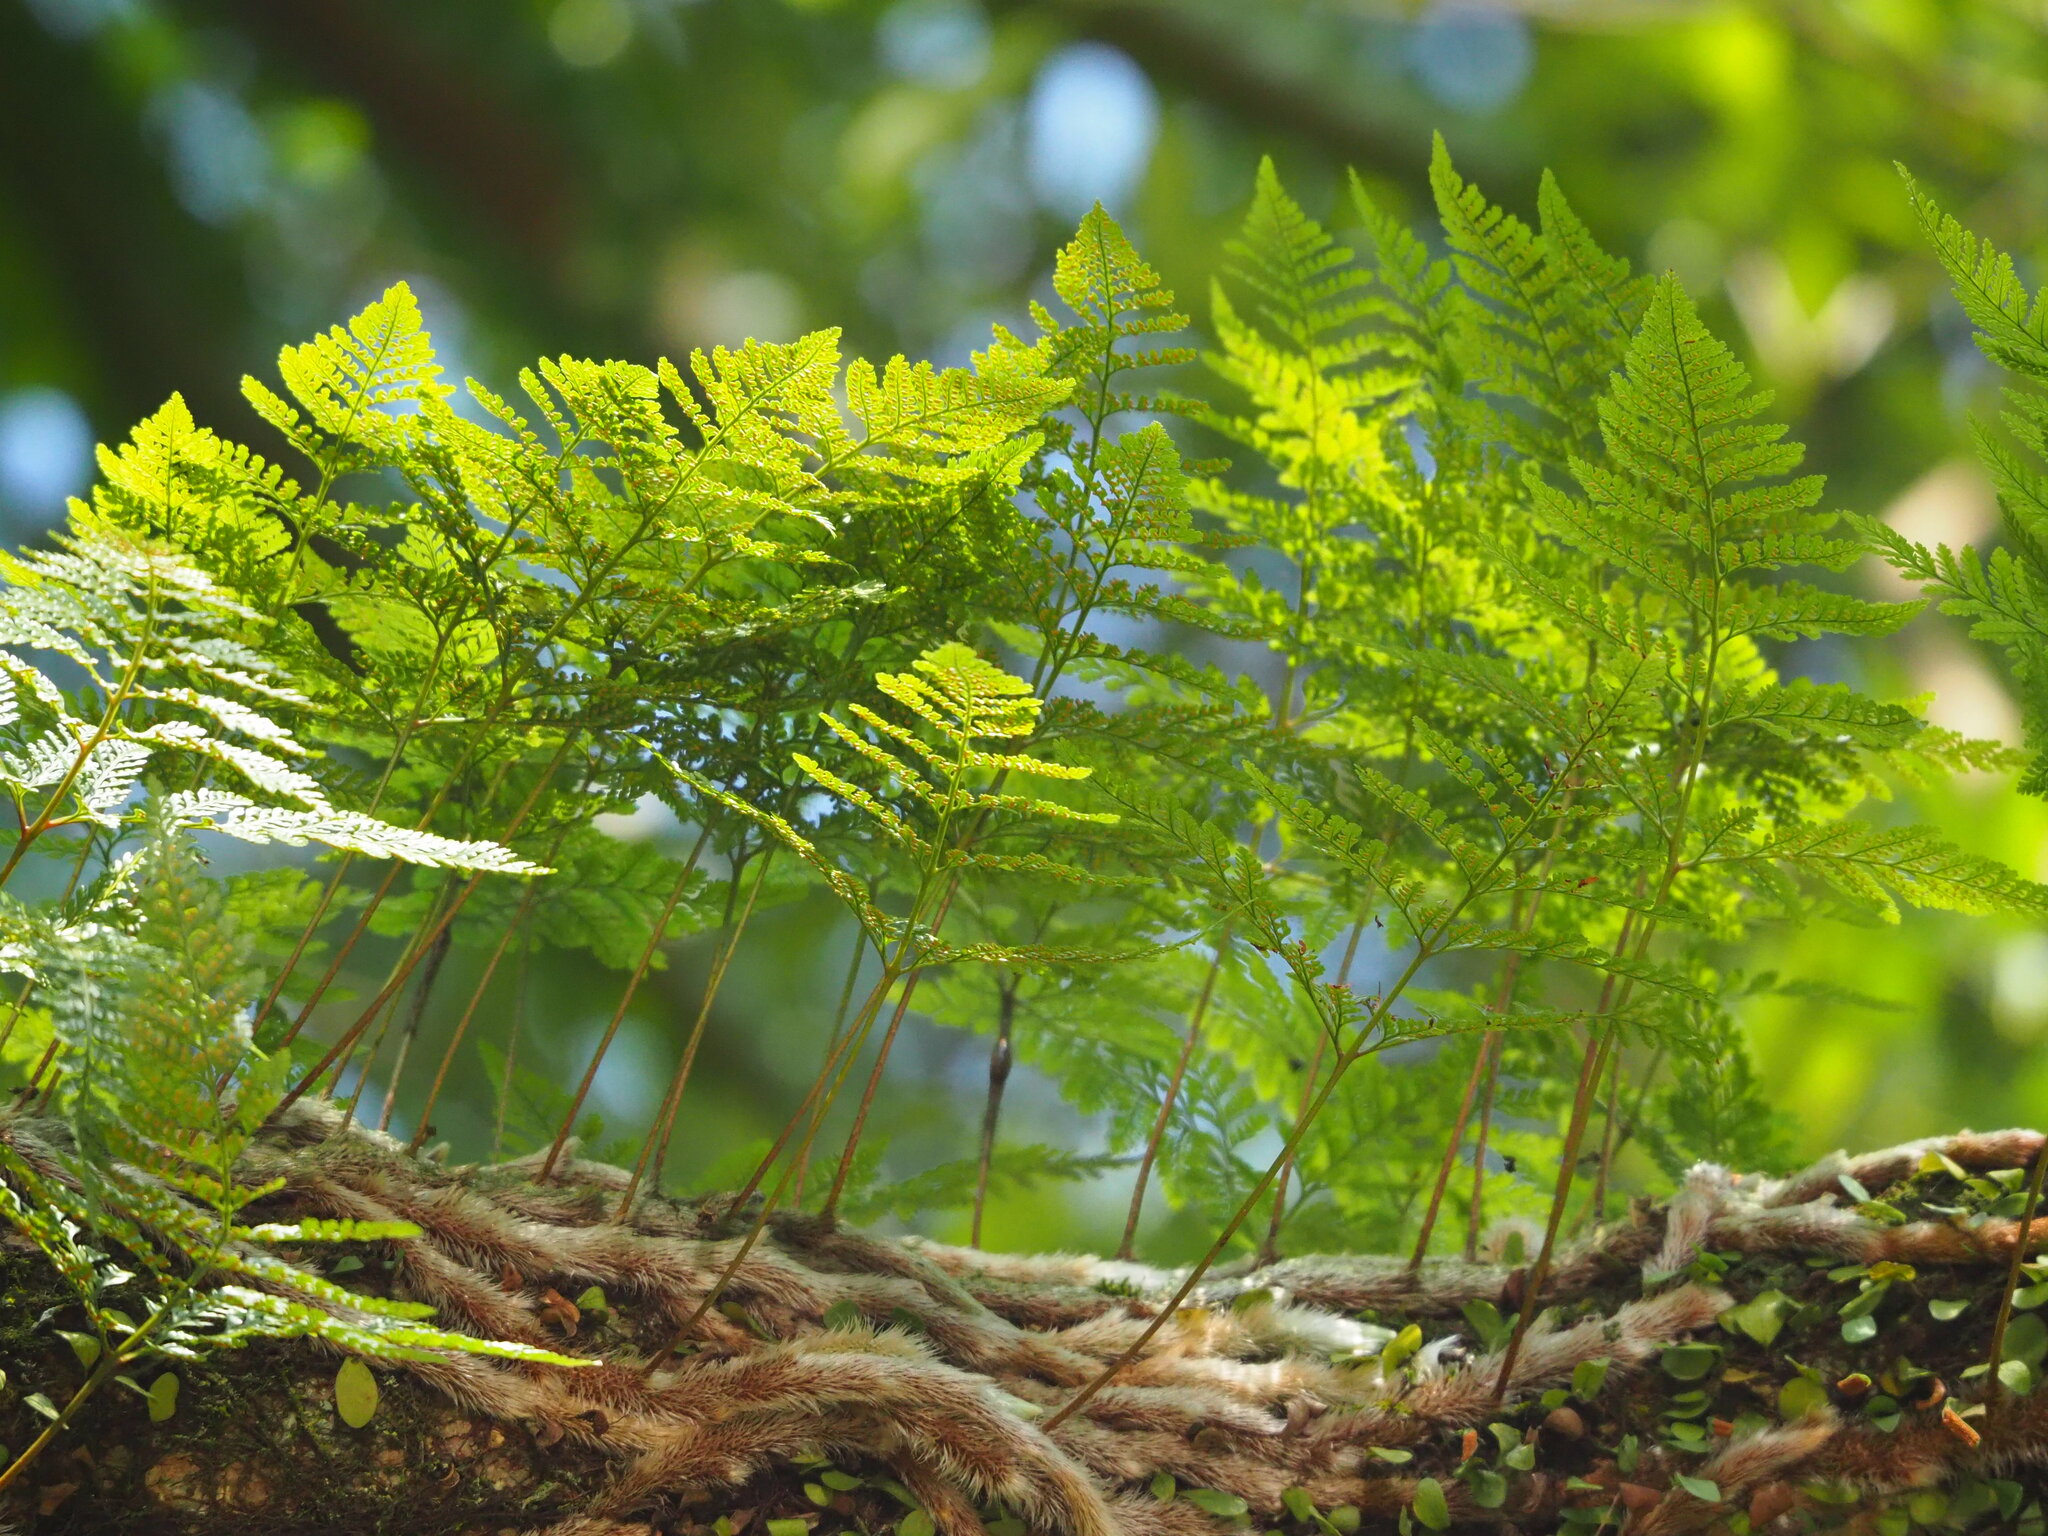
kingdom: Plantae
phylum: Tracheophyta
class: Polypodiopsida
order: Polypodiales
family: Davalliaceae
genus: Davallia
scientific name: Davallia griffithiana
